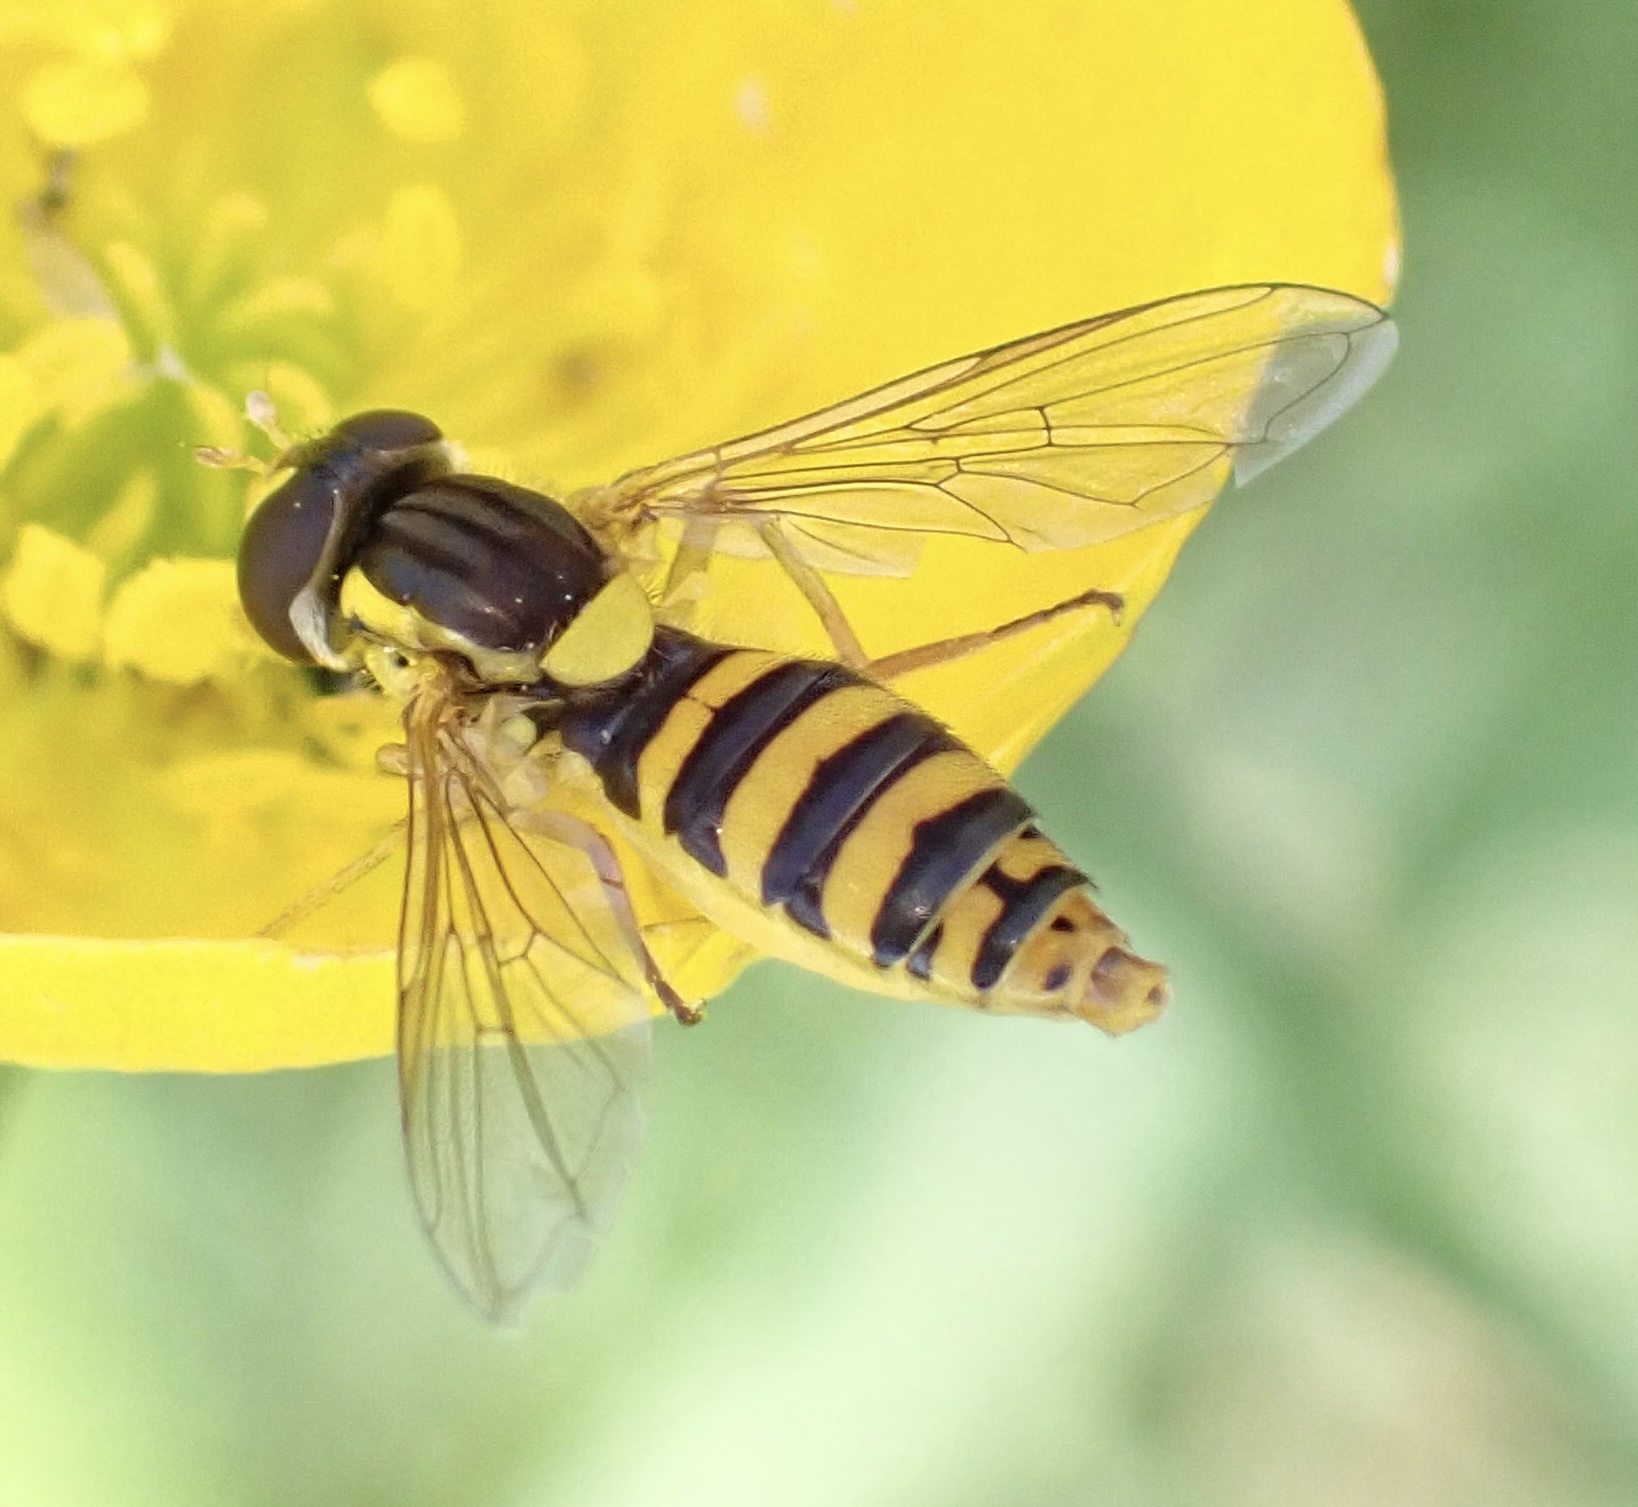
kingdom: Animalia
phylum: Arthropoda
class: Insecta
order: Diptera
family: Syrphidae
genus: Sphaerophoria
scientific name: Sphaerophoria
